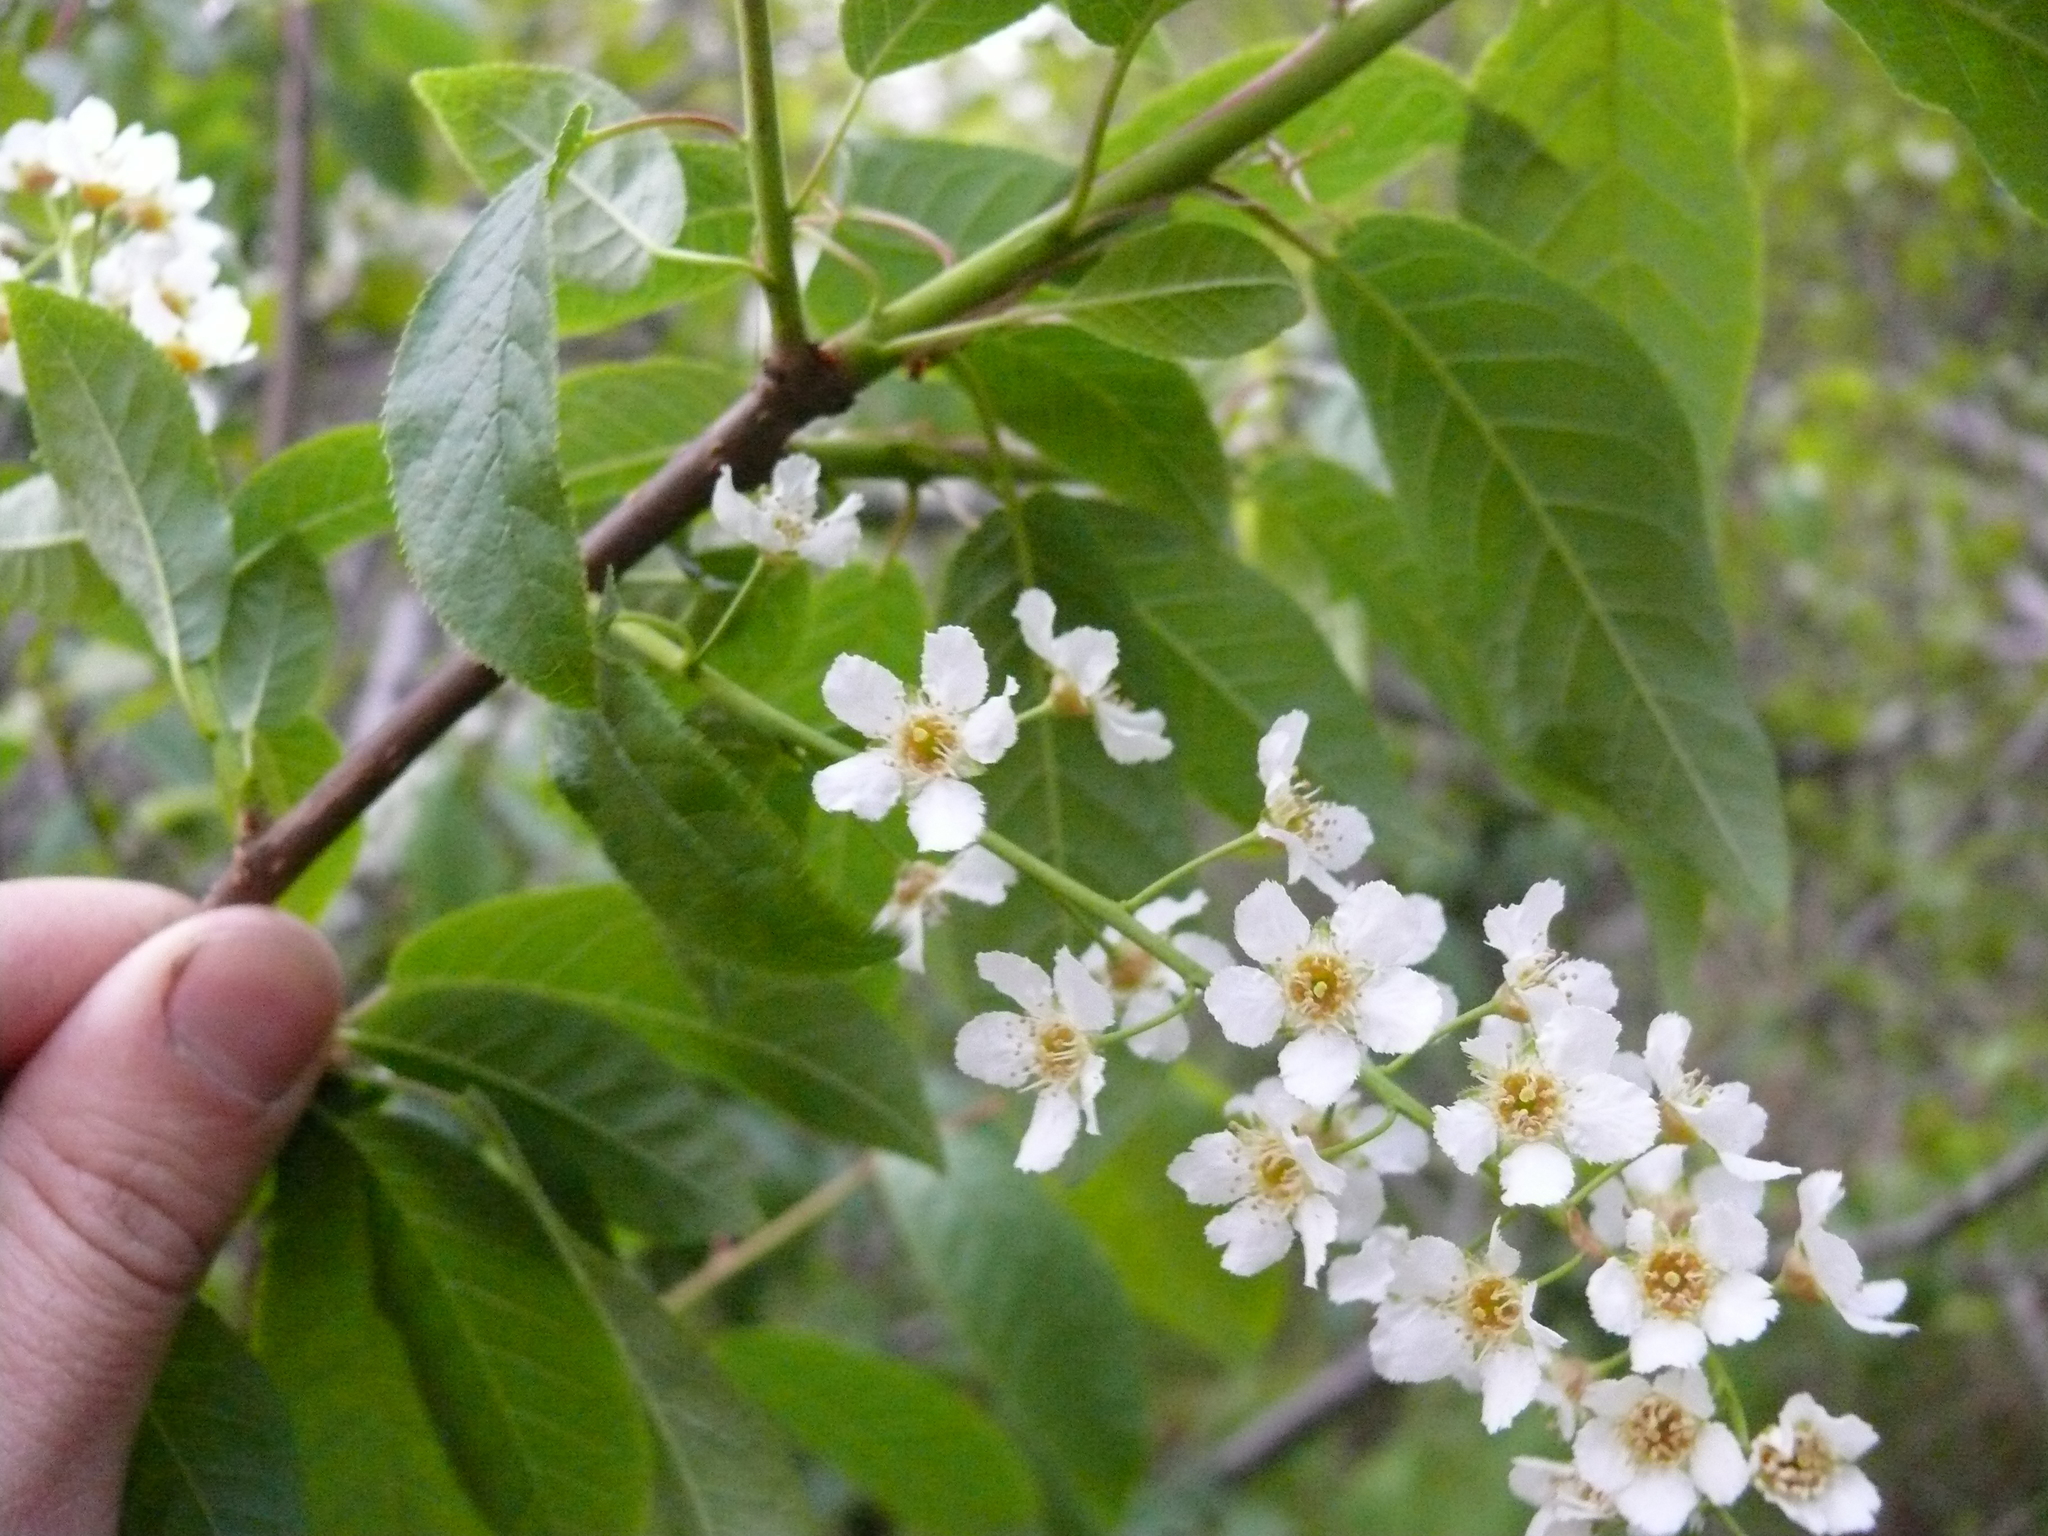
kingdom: Plantae
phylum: Tracheophyta
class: Magnoliopsida
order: Rosales
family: Rosaceae
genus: Prunus
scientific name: Prunus padus
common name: Bird cherry
